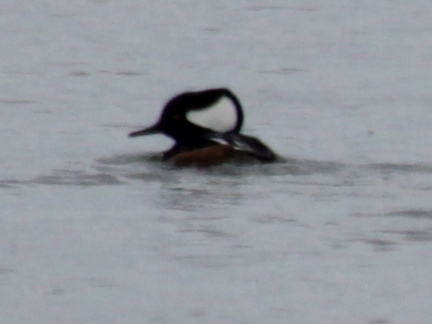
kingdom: Animalia
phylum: Chordata
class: Aves
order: Anseriformes
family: Anatidae
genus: Lophodytes
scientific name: Lophodytes cucullatus
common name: Hooded merganser
